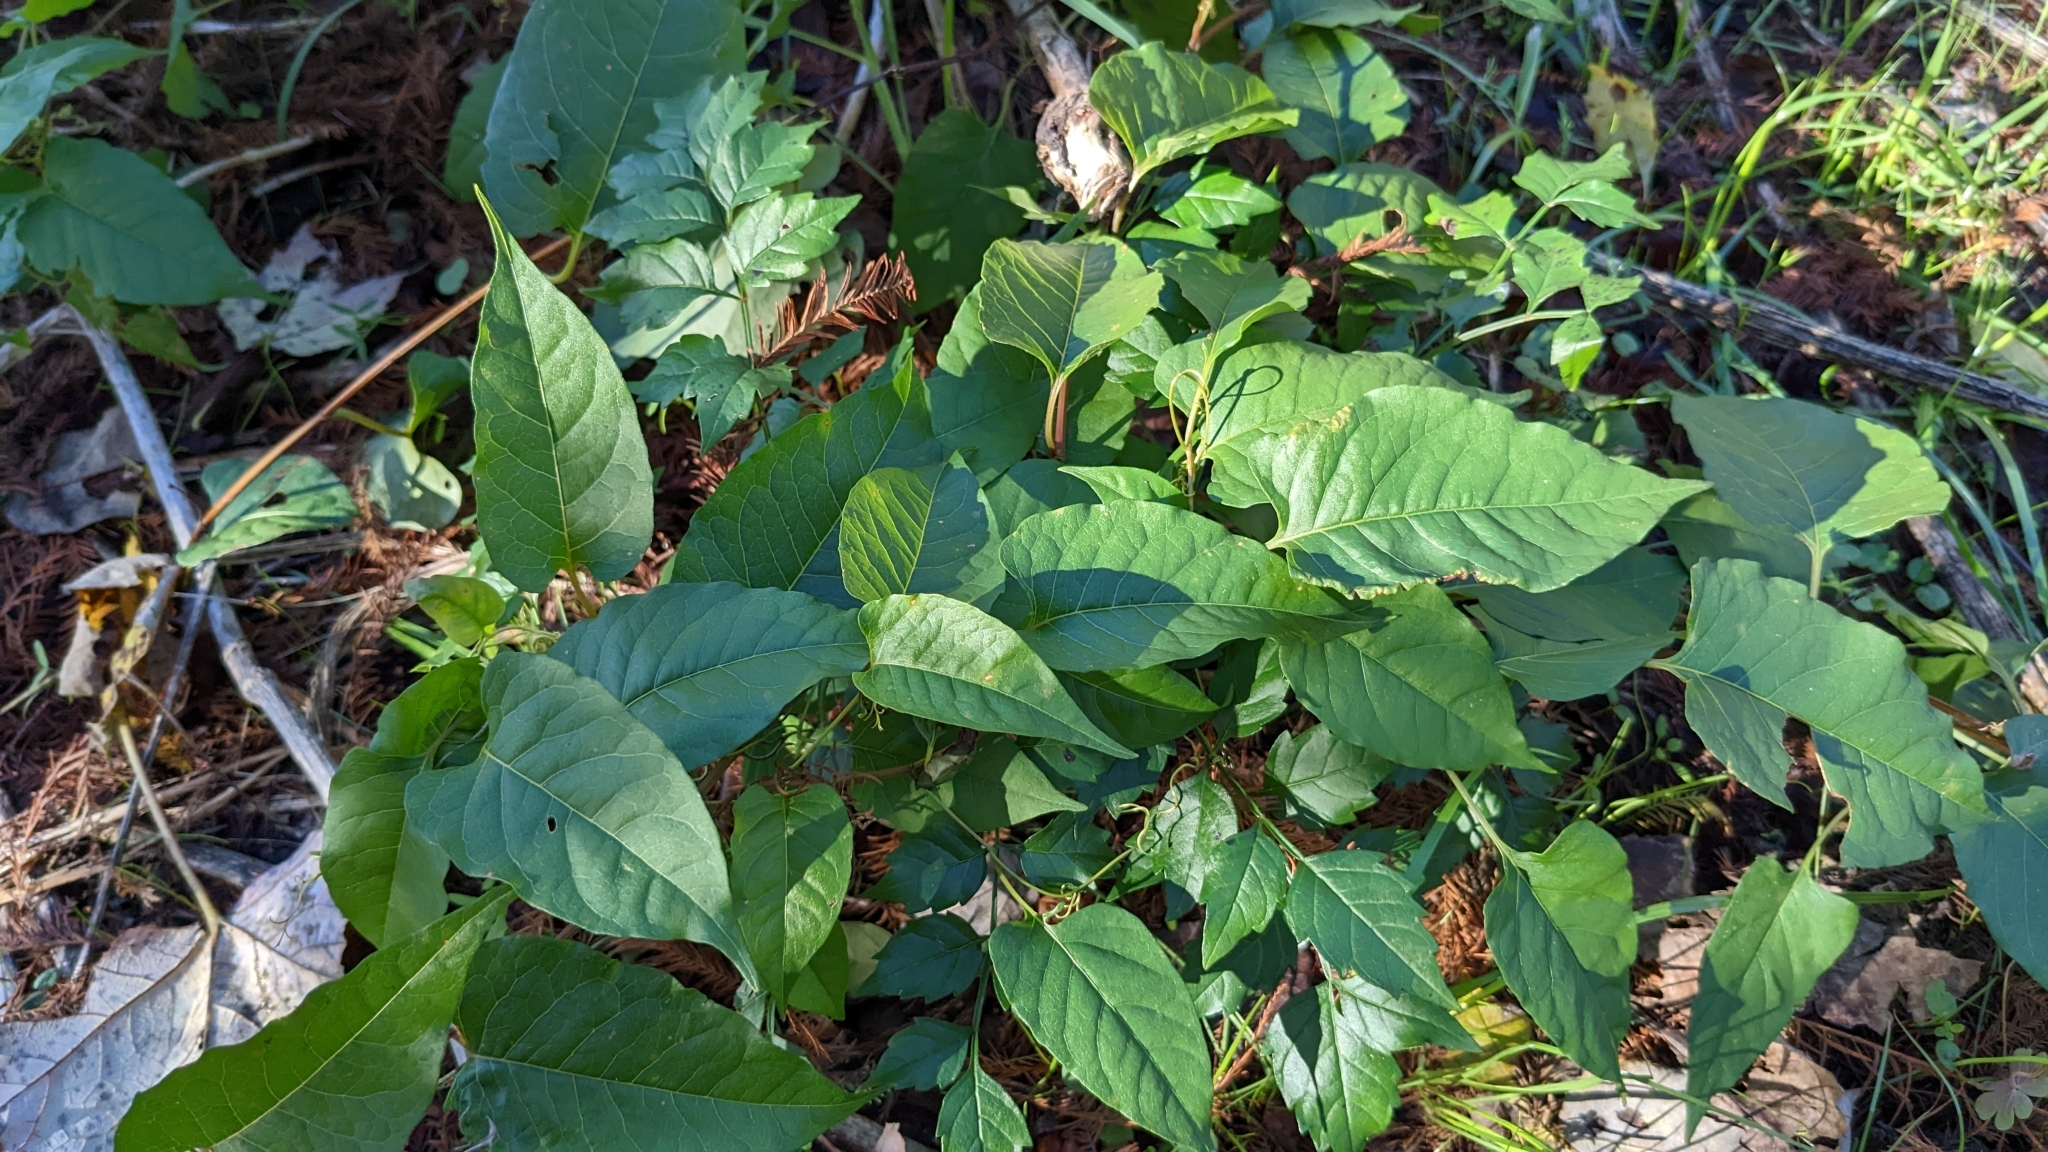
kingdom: Plantae
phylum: Tracheophyta
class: Magnoliopsida
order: Caryophyllales
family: Polygonaceae
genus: Brunnichia
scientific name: Brunnichia ovata
